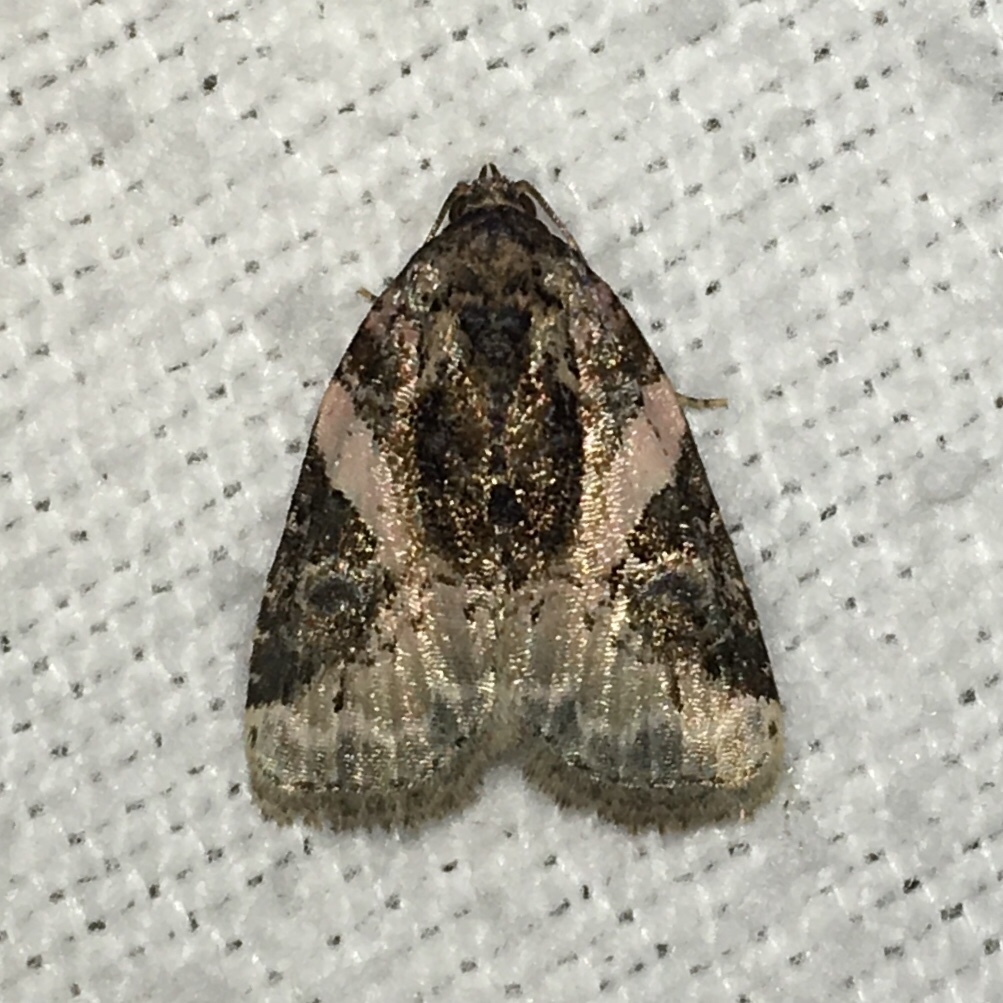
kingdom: Animalia
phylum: Arthropoda
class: Insecta
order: Lepidoptera
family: Noctuidae
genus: Pseudeustrotia
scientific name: Pseudeustrotia carneola
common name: Pink-barred lithacodia moth
